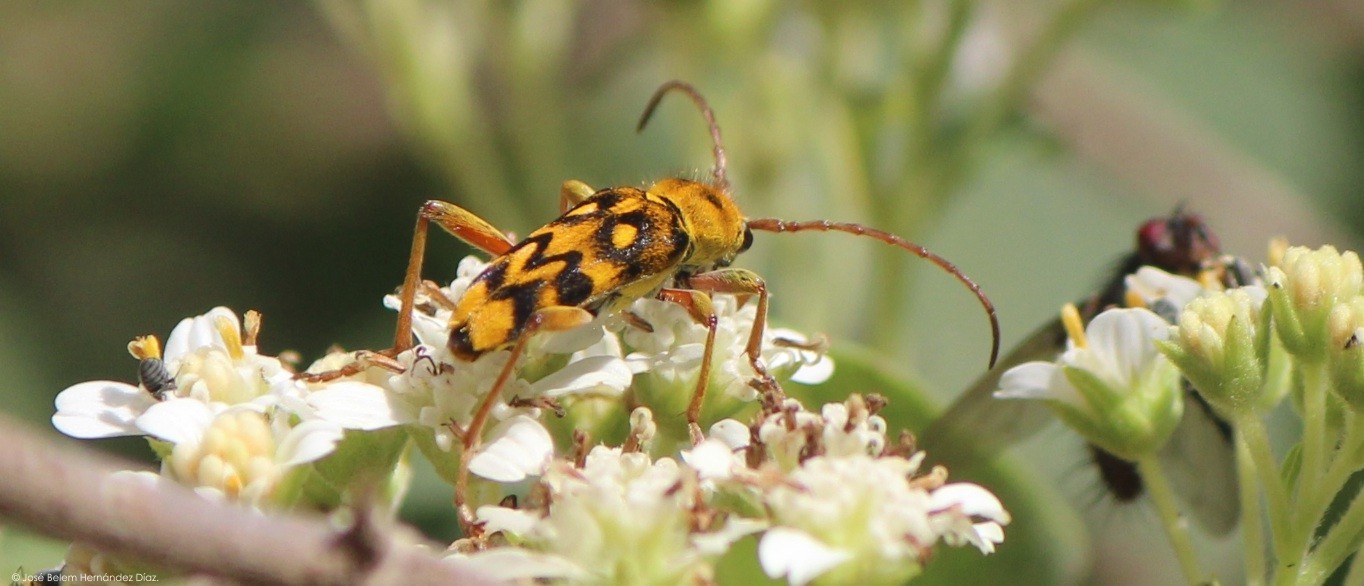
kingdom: Animalia
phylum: Arthropoda
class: Insecta
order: Coleoptera
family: Cerambycidae
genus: Ochraethes
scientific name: Ochraethes sommeri
